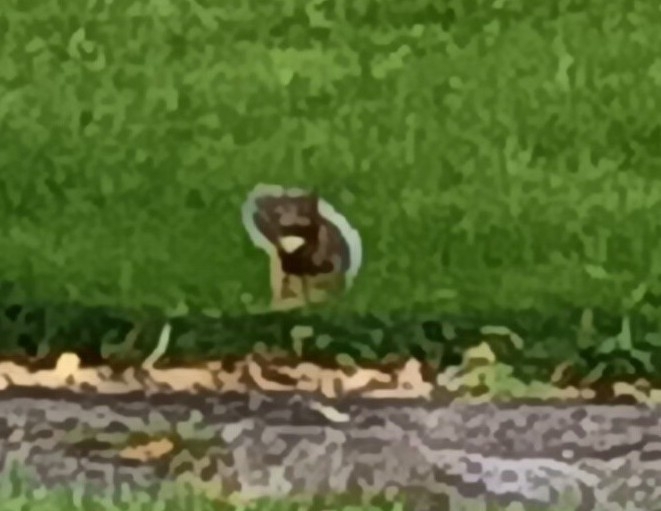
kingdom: Animalia
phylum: Chordata
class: Mammalia
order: Rodentia
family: Sciuridae
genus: Sciurus
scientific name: Sciurus carolinensis
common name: Eastern gray squirrel
